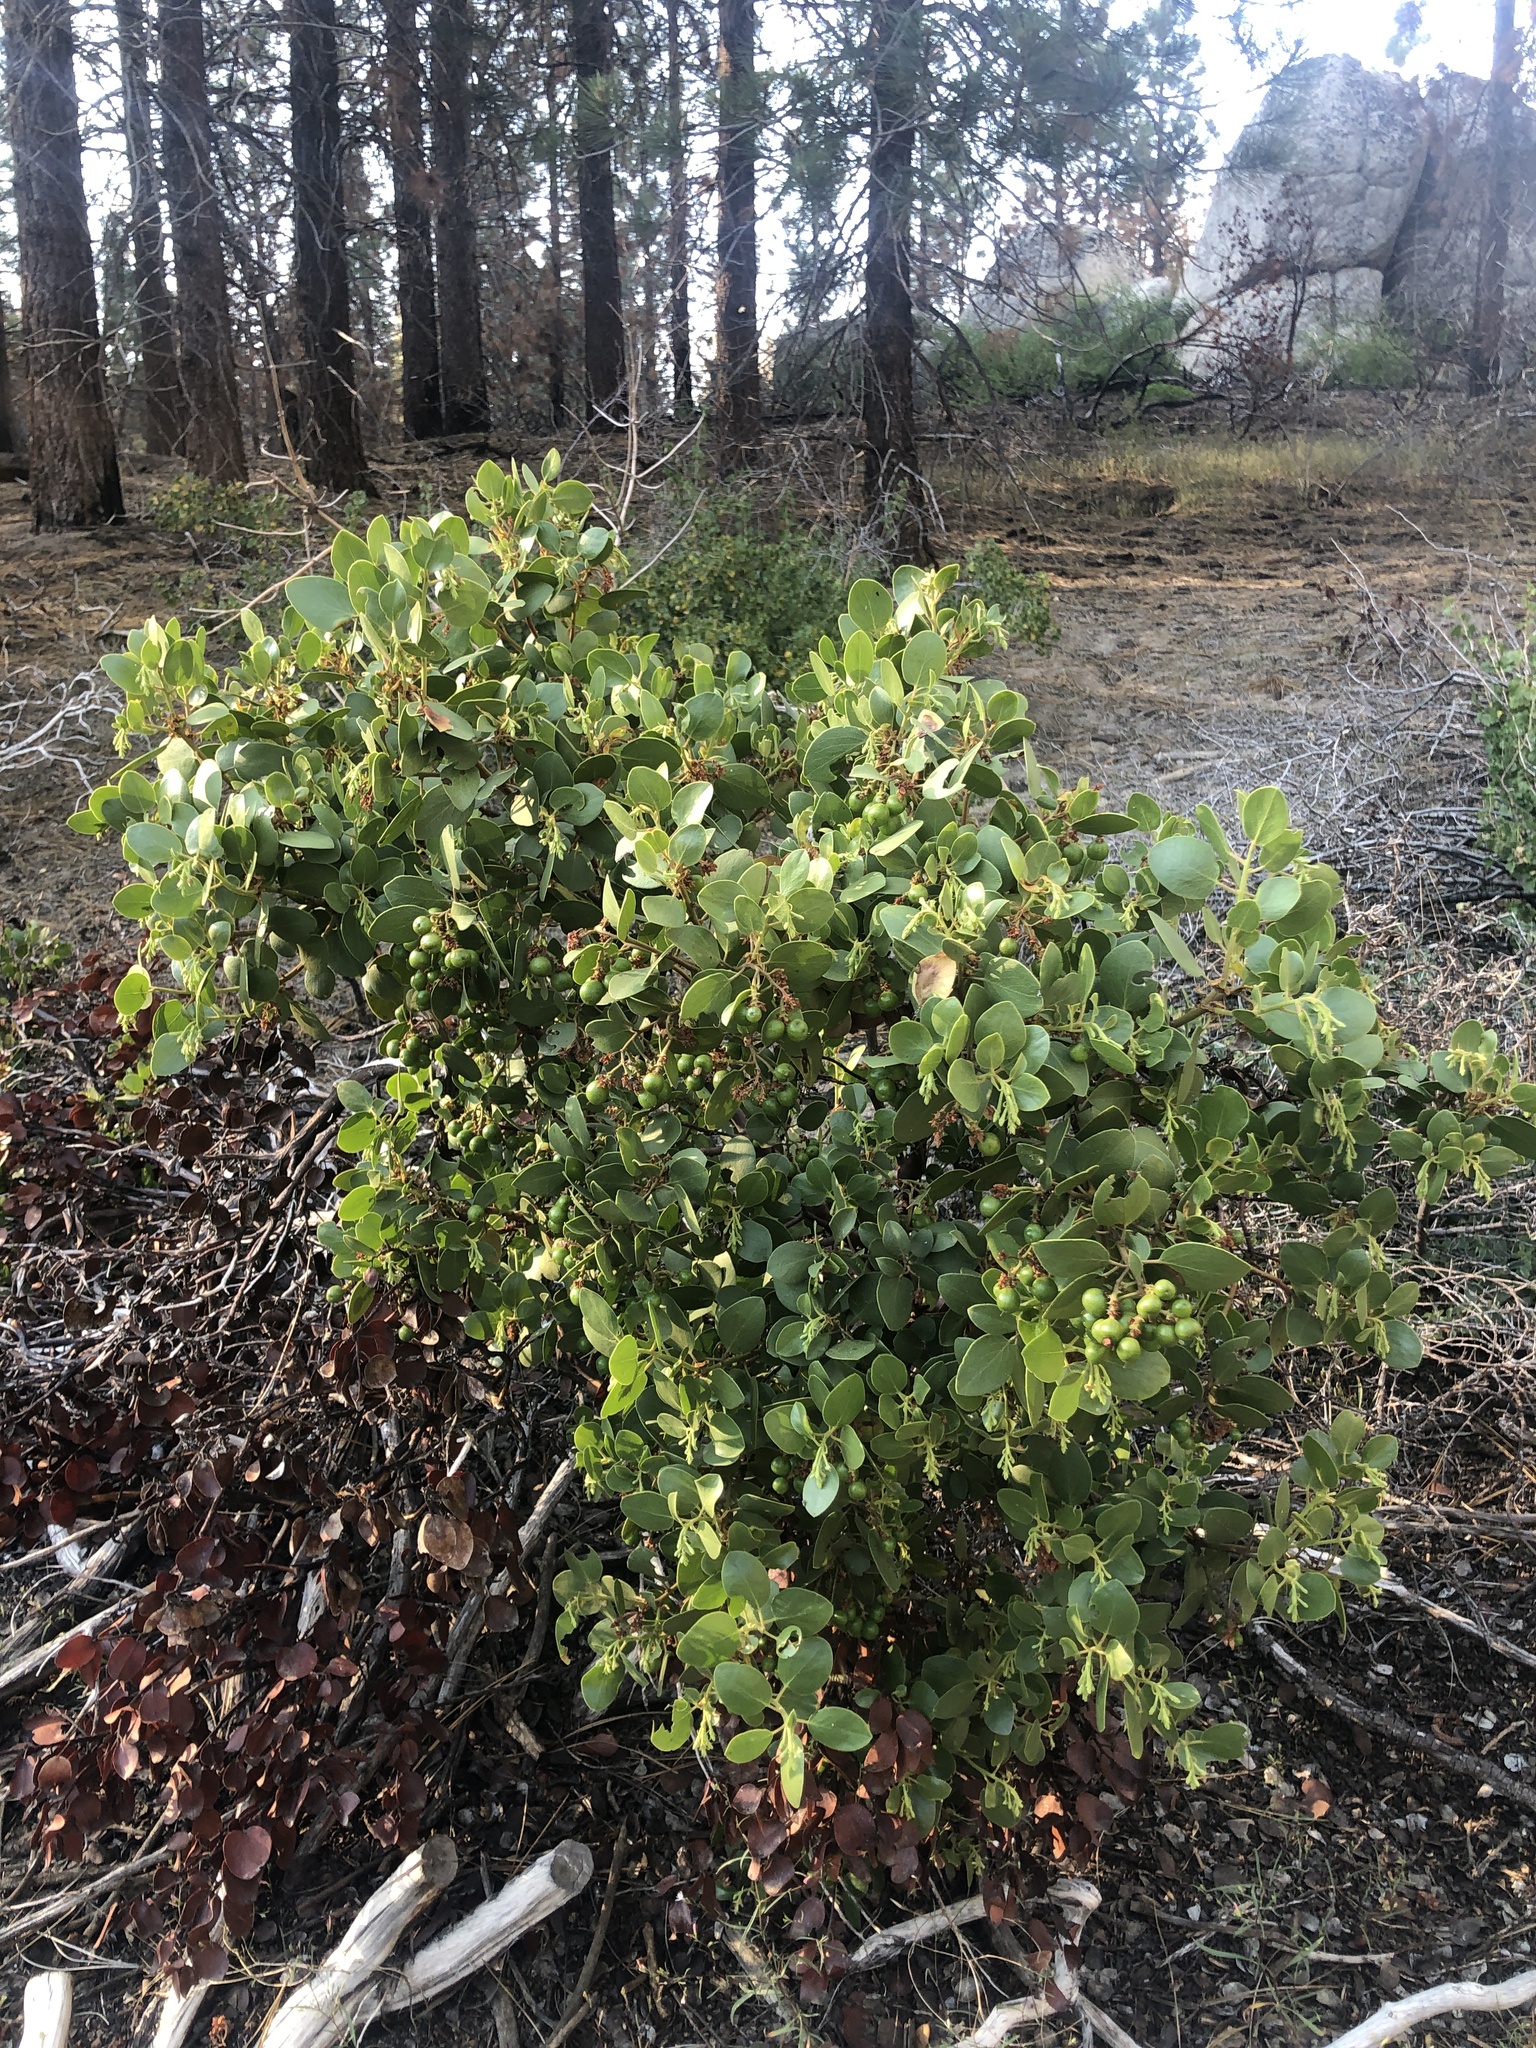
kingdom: Plantae
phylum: Tracheophyta
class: Magnoliopsida
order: Ericales
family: Ericaceae
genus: Arctostaphylos
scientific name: Arctostaphylos patula
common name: Green-leaf manzanita
